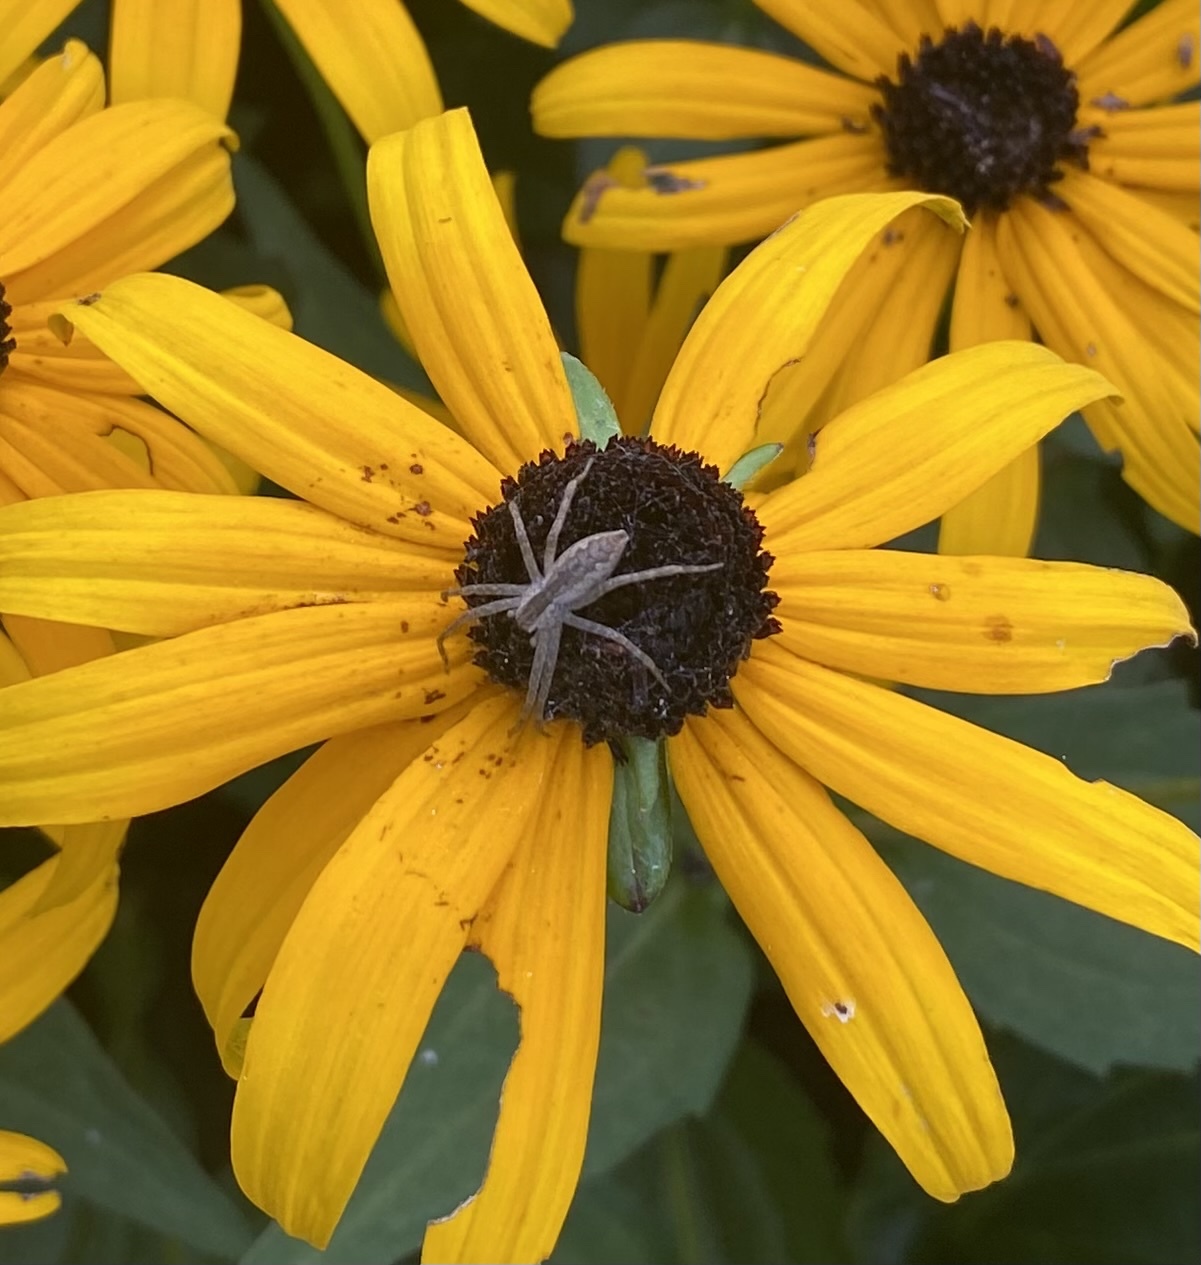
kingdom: Animalia
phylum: Arthropoda
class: Arachnida
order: Araneae
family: Pisauridae
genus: Pisaurina
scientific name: Pisaurina mira
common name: American nursery web spider
